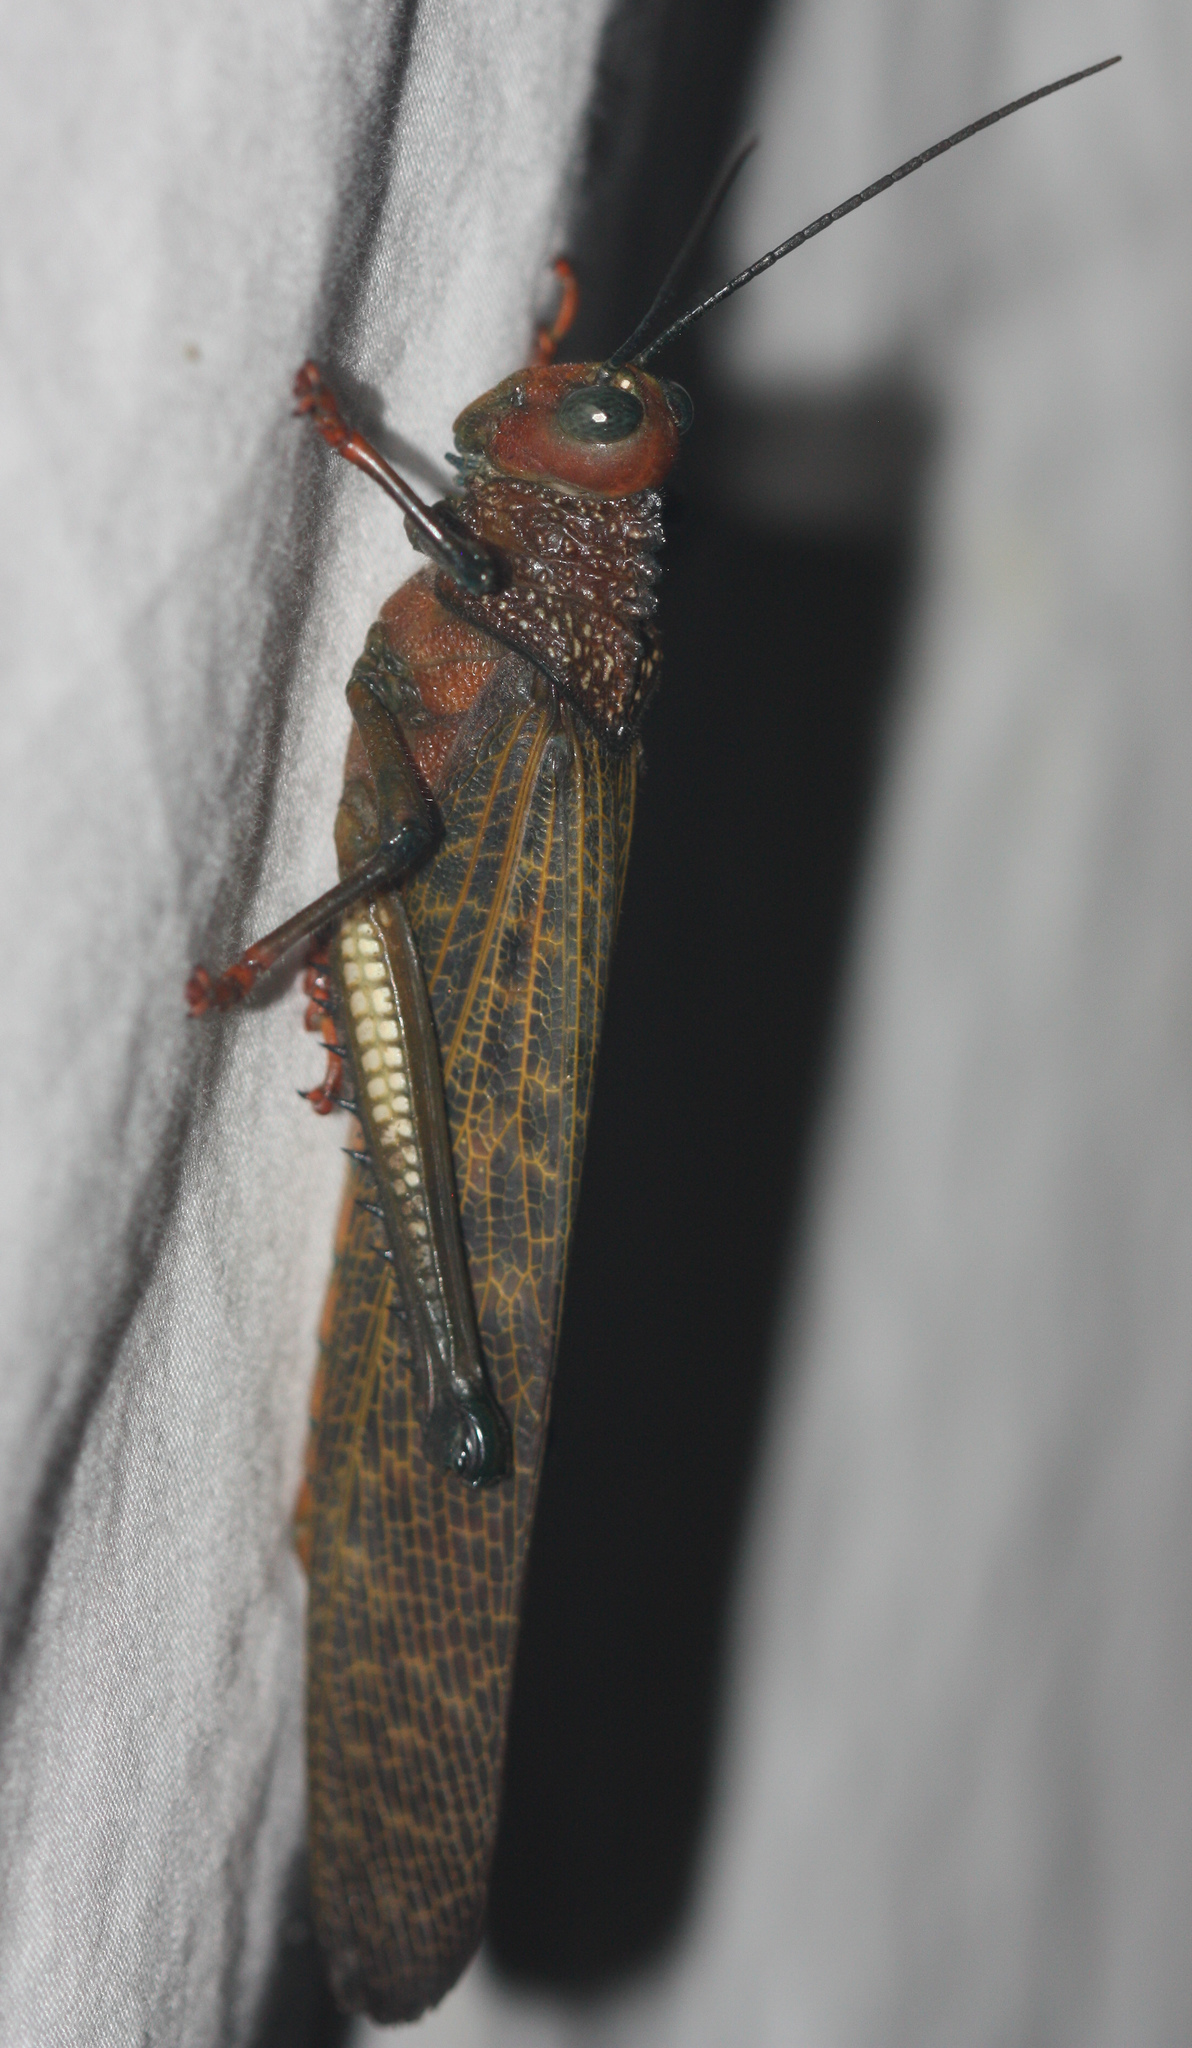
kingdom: Animalia
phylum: Arthropoda
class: Insecta
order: Orthoptera
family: Romaleidae
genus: Tropidacris
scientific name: Tropidacris cristata
